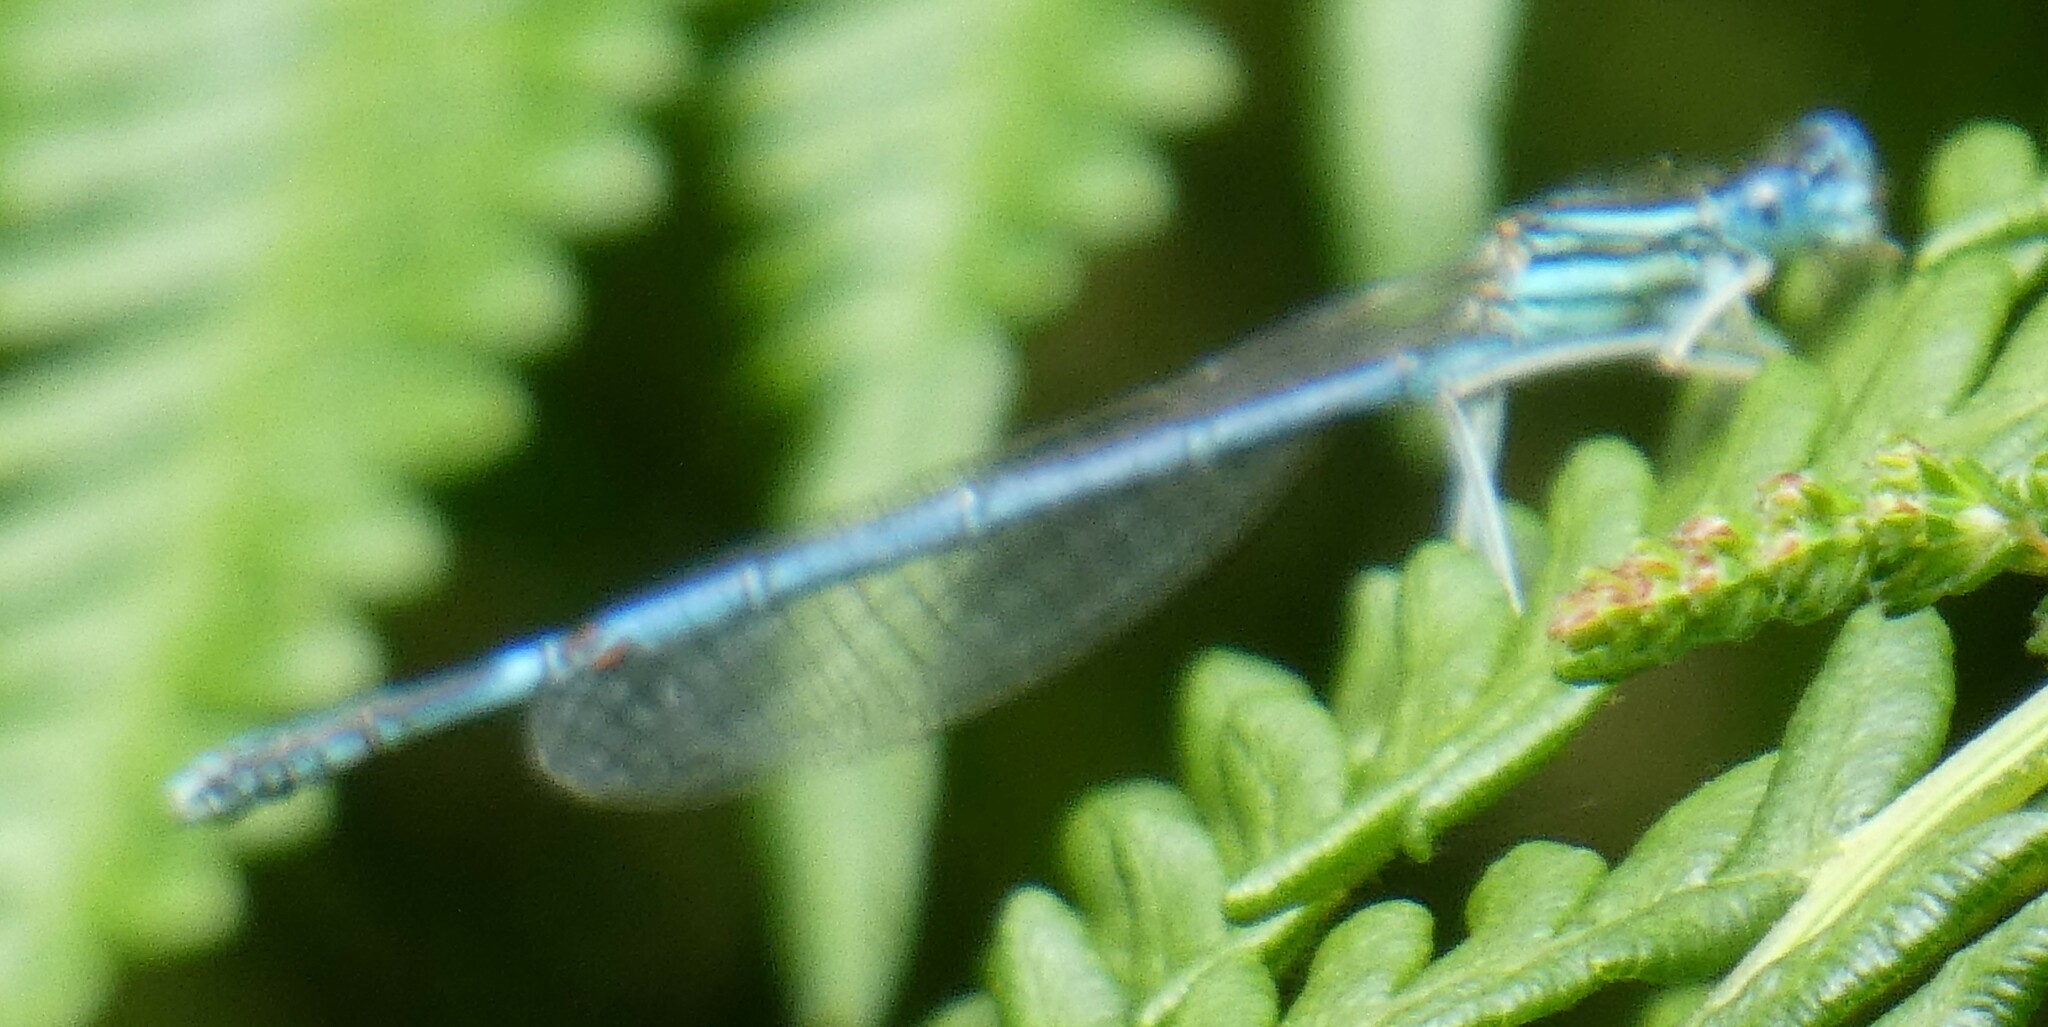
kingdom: Animalia
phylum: Arthropoda
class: Insecta
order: Odonata
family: Platycnemididae
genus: Platycnemis
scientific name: Platycnemis pennipes
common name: White-legged damselfly
